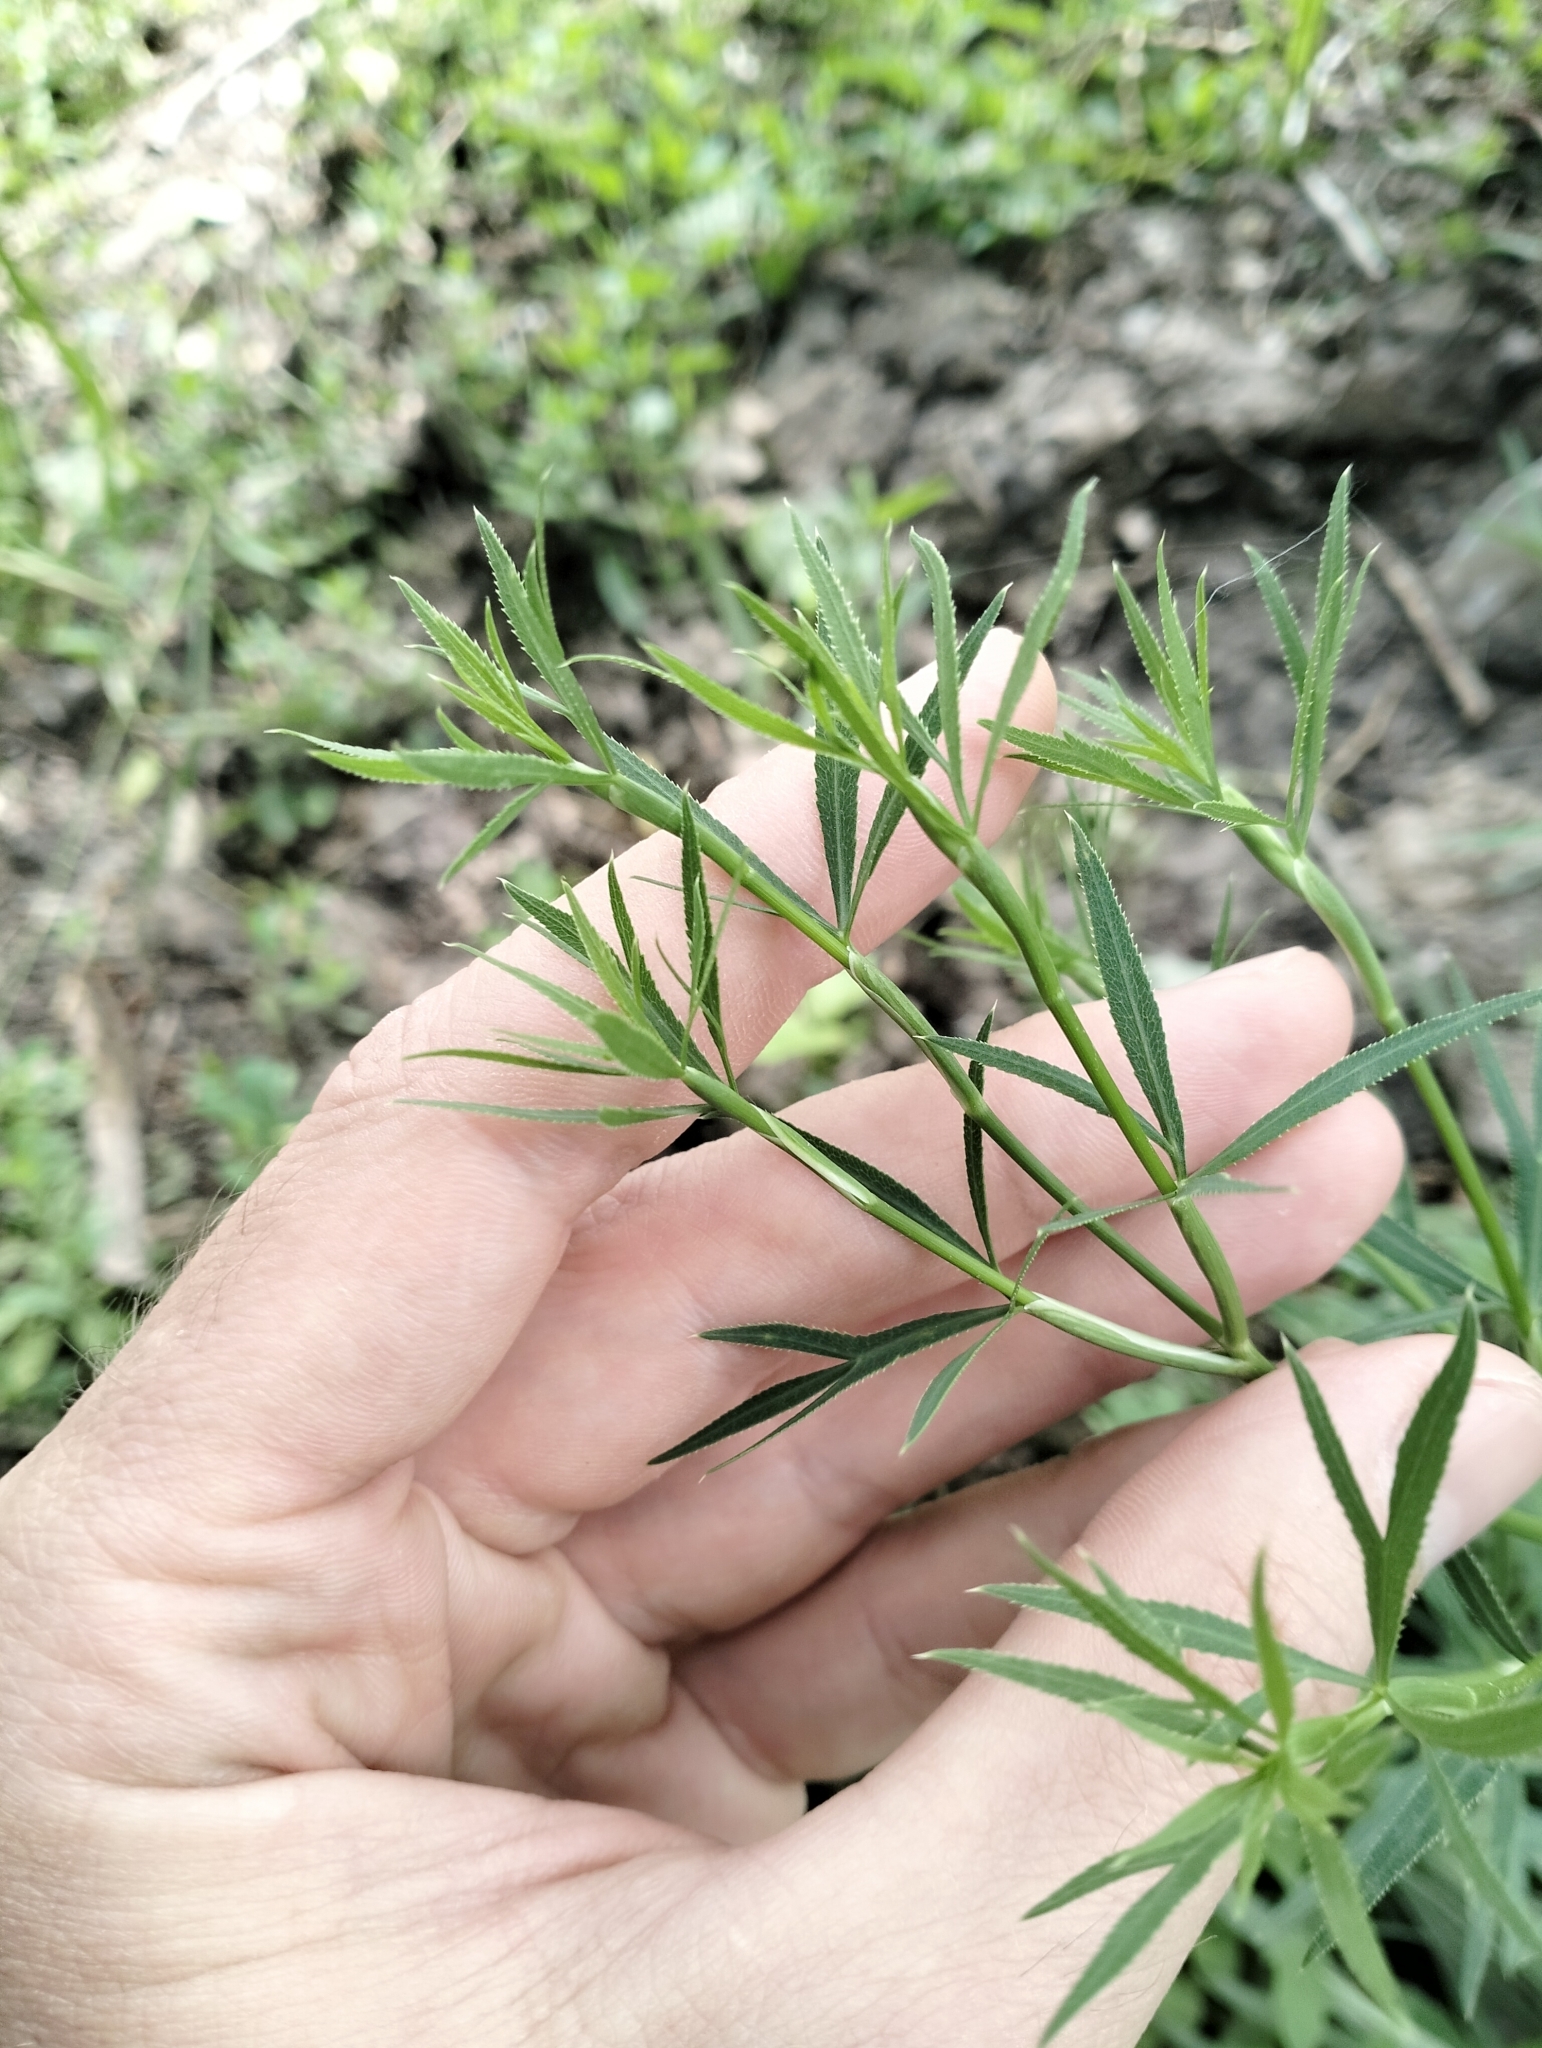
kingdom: Plantae
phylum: Tracheophyta
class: Magnoliopsida
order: Apiales
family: Apiaceae
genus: Falcaria
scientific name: Falcaria vulgaris
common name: Longleaf
